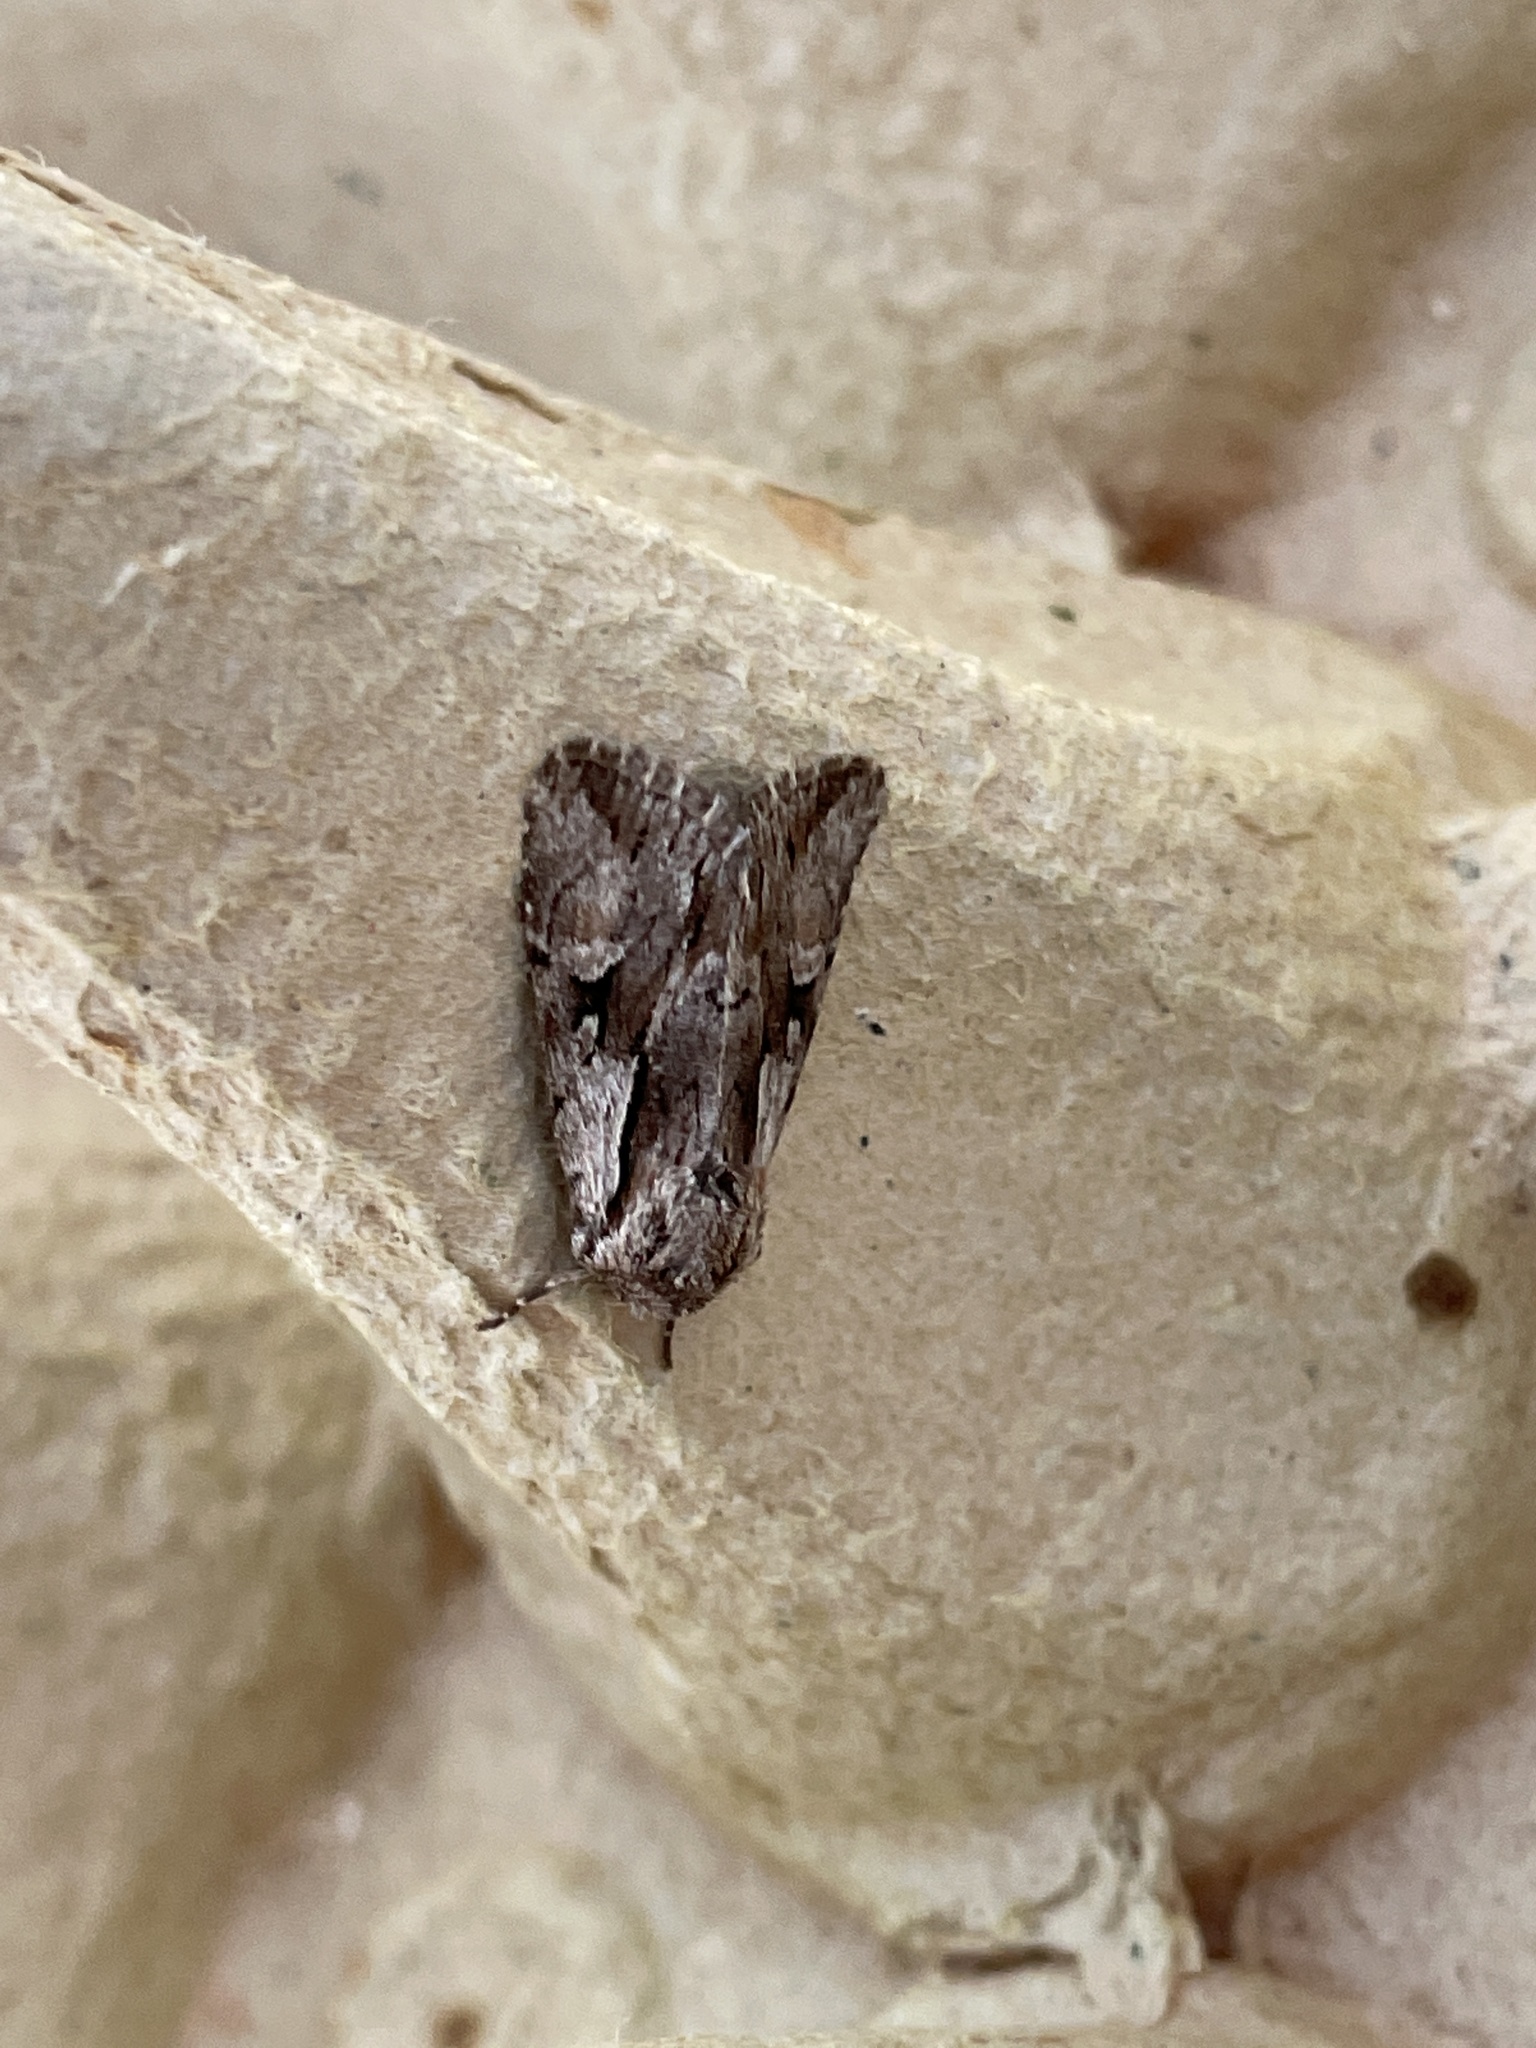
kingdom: Animalia
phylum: Arthropoda
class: Insecta
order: Lepidoptera
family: Noctuidae
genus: Chloantha
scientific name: Chloantha hyperici
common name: Pale-shouldered cloud
